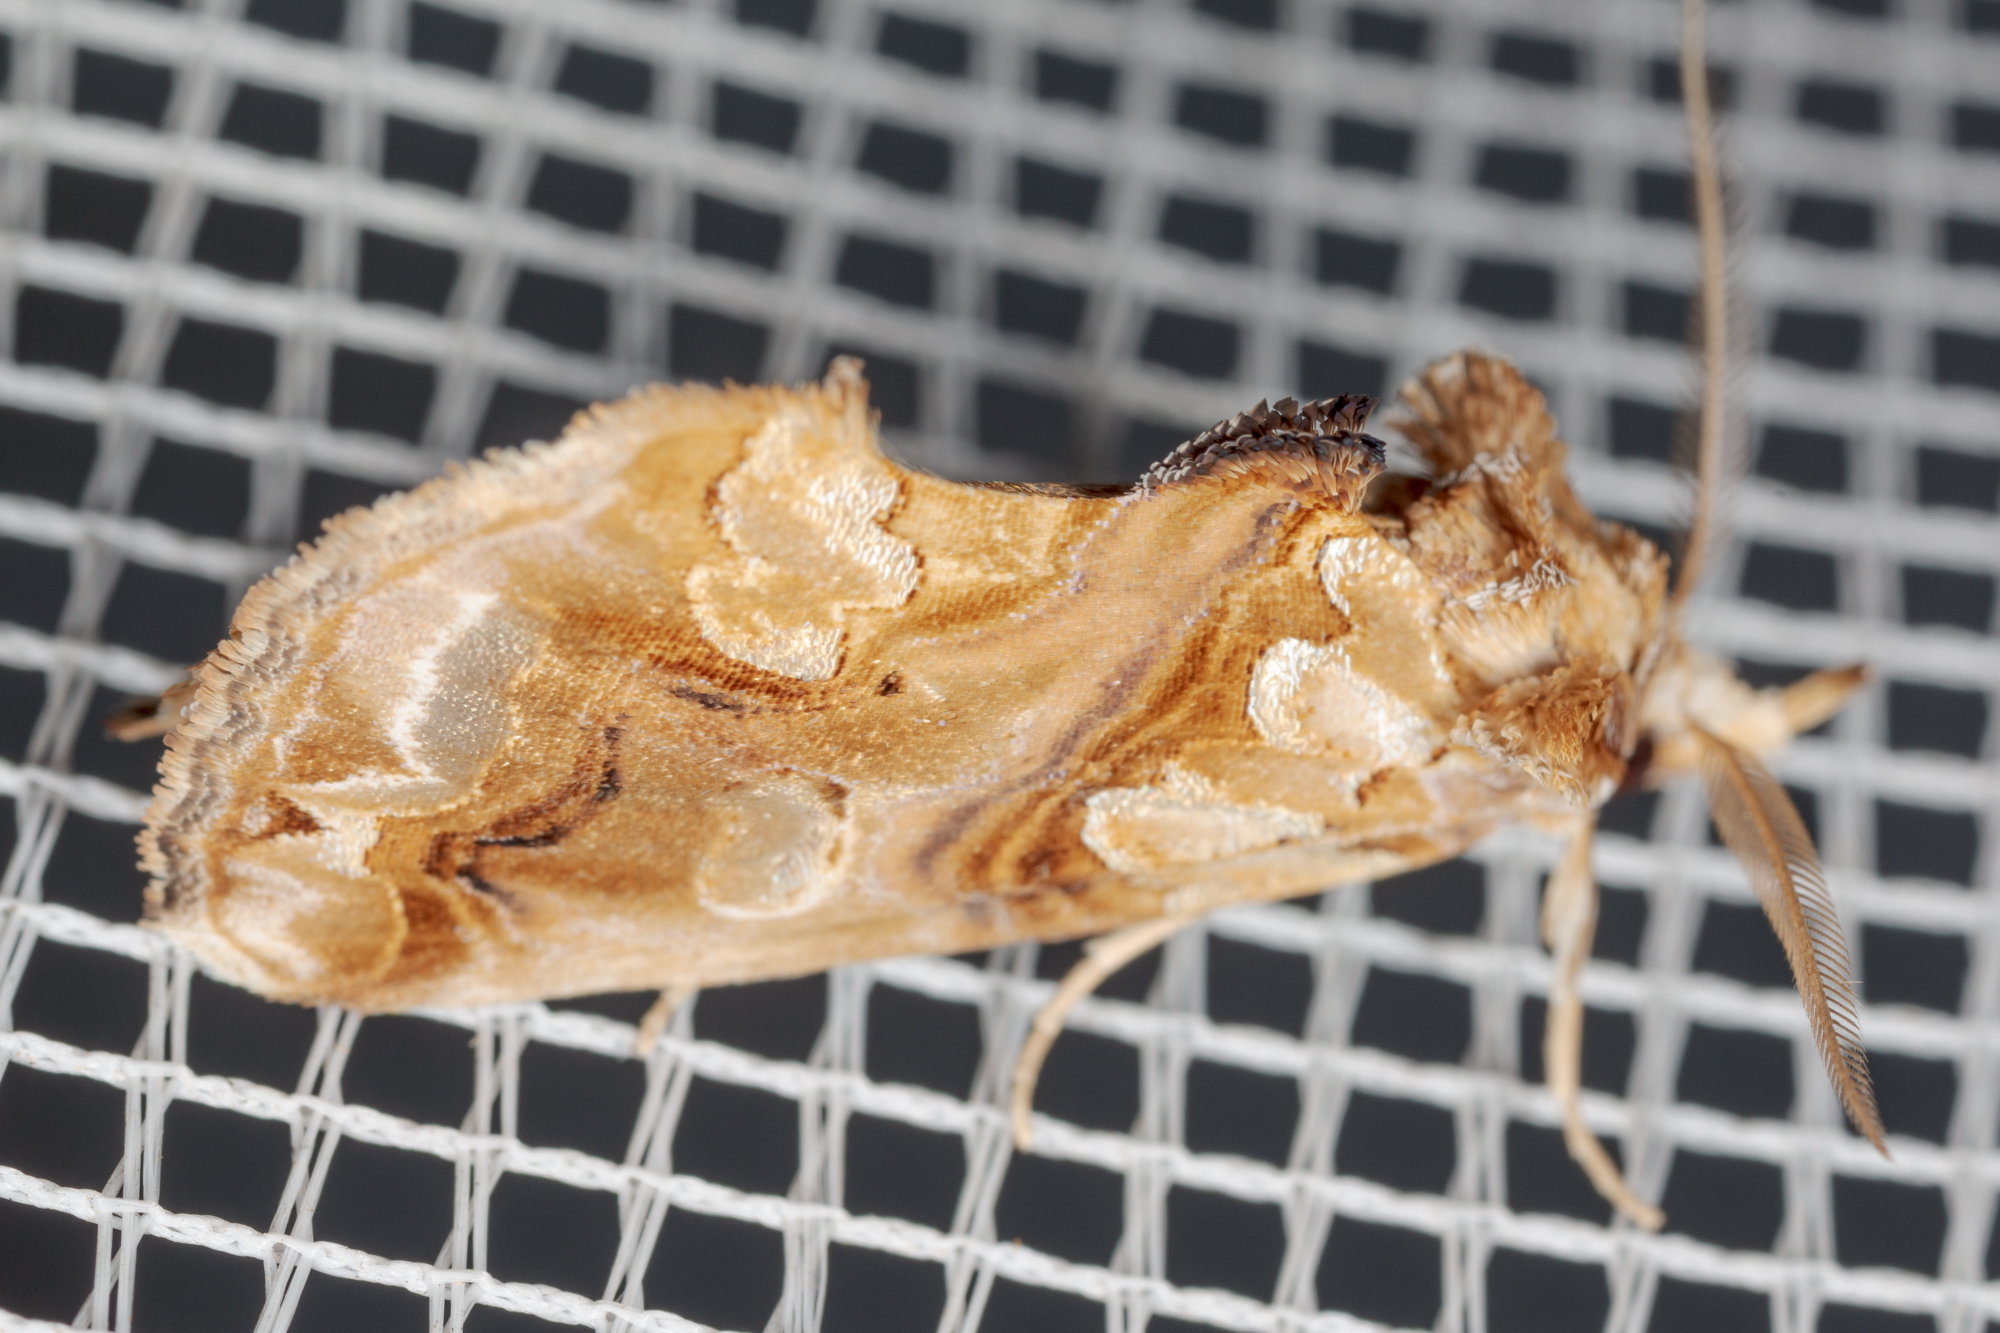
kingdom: Animalia
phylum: Arthropoda
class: Insecta
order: Lepidoptera
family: Erebidae
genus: Plusiodonta
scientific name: Plusiodonta compressipalpis
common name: Moonseed moth
